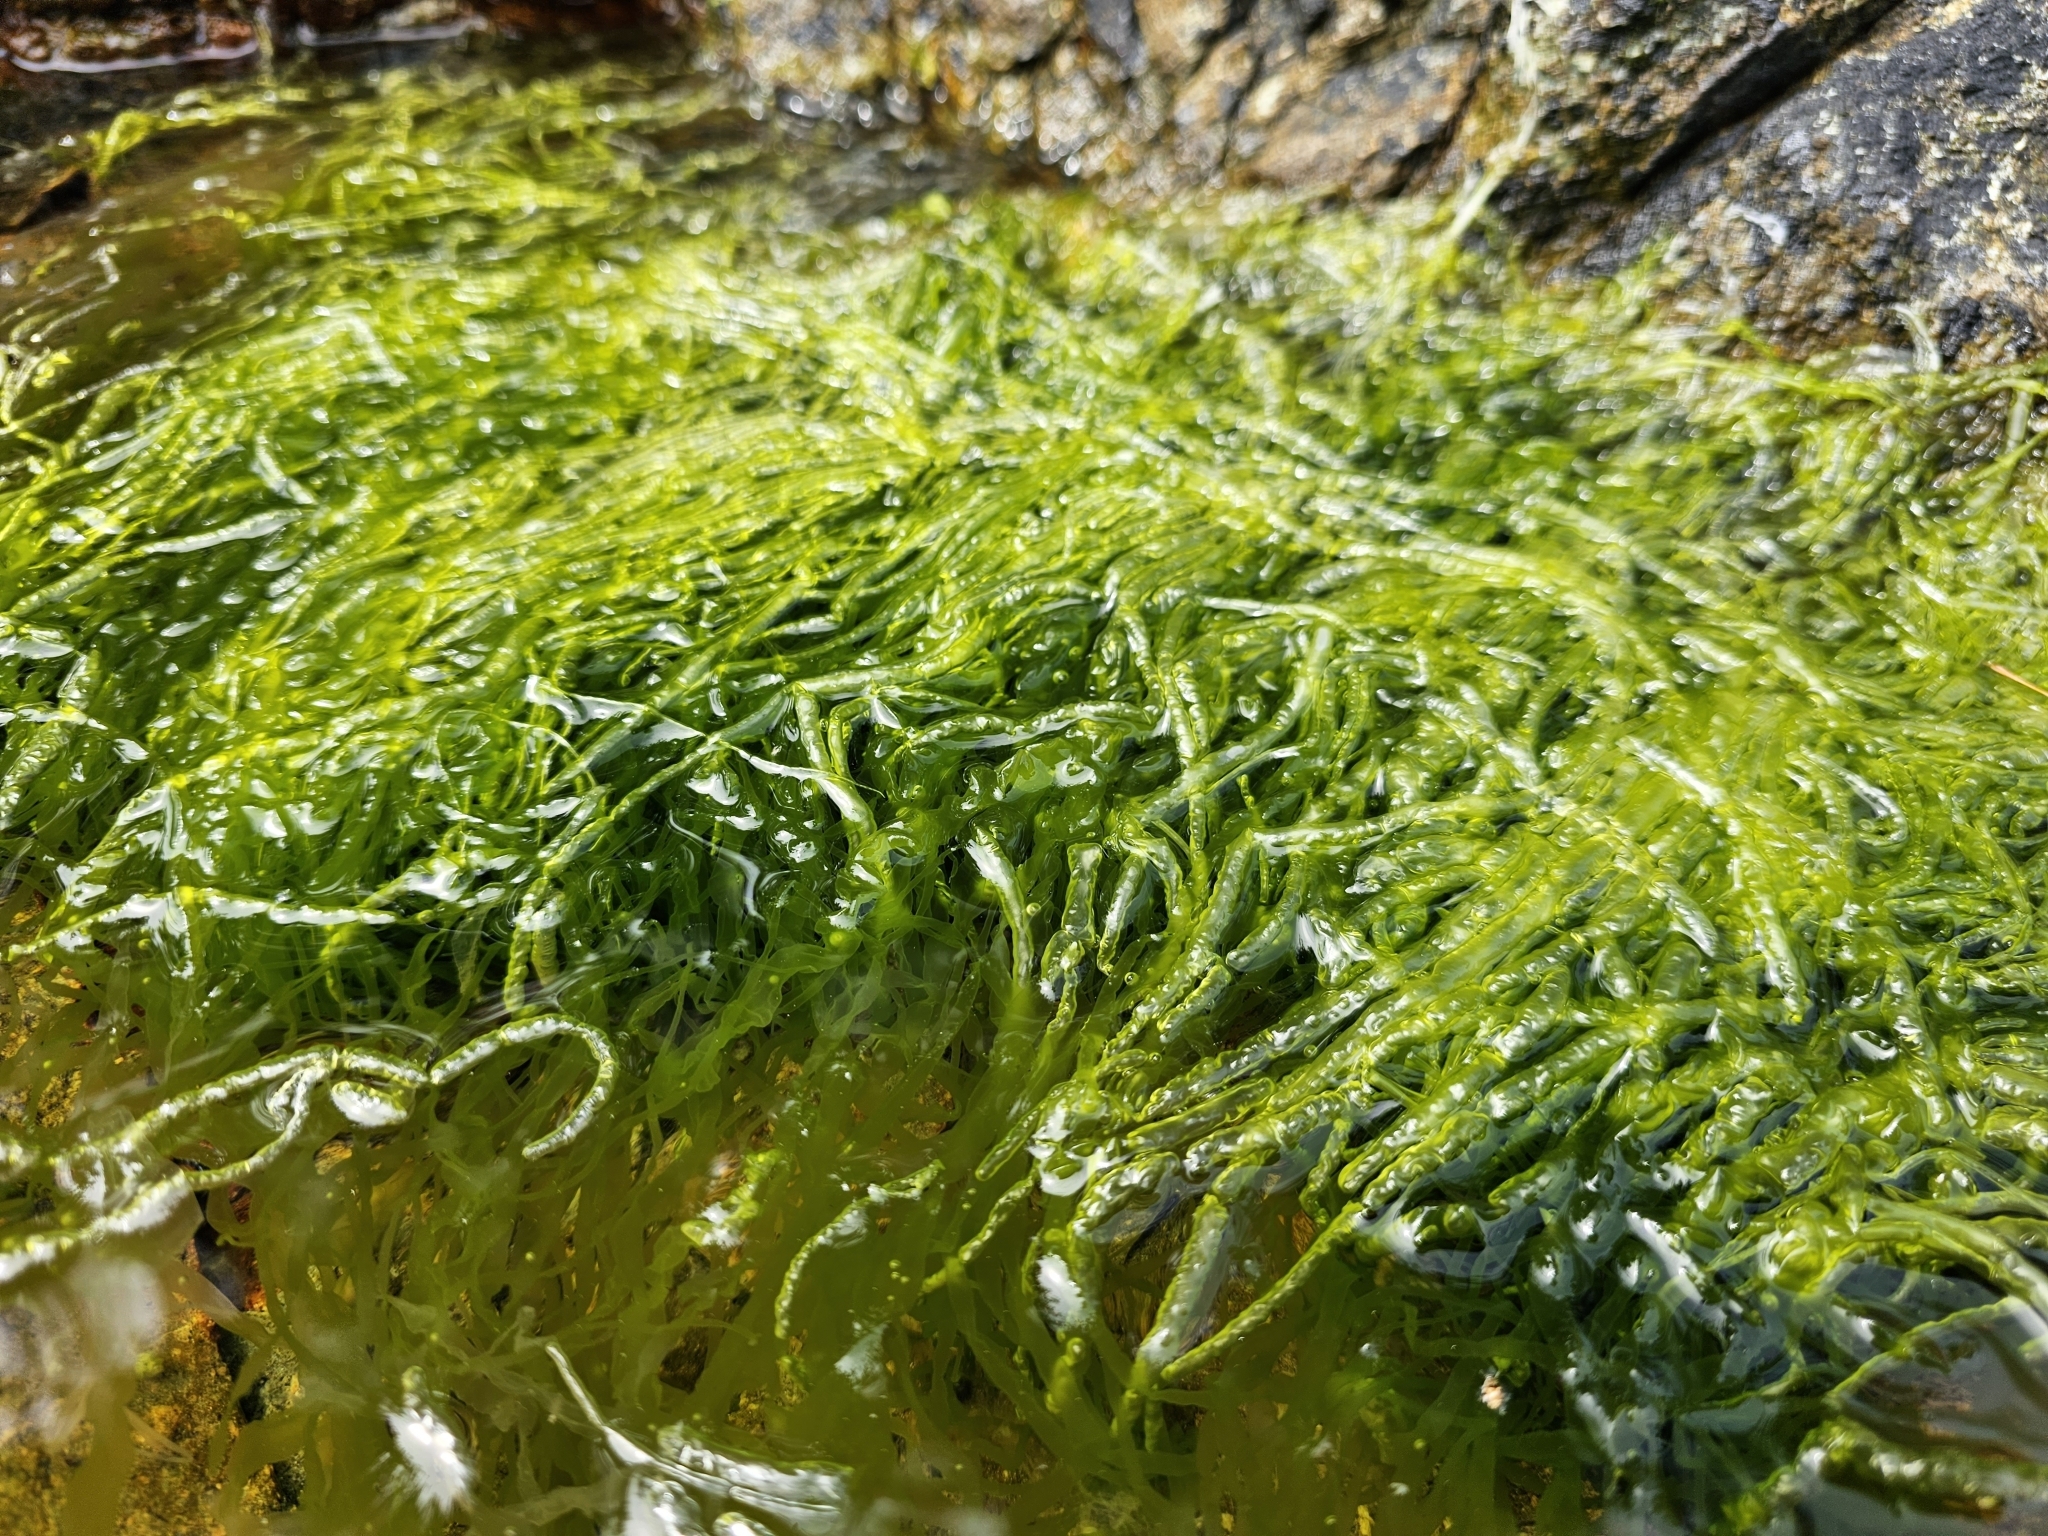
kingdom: Plantae
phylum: Chlorophyta
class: Ulvophyceae
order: Ulvales
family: Ulvaceae
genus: Ulva
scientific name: Ulva intestinalis
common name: Gut weed
